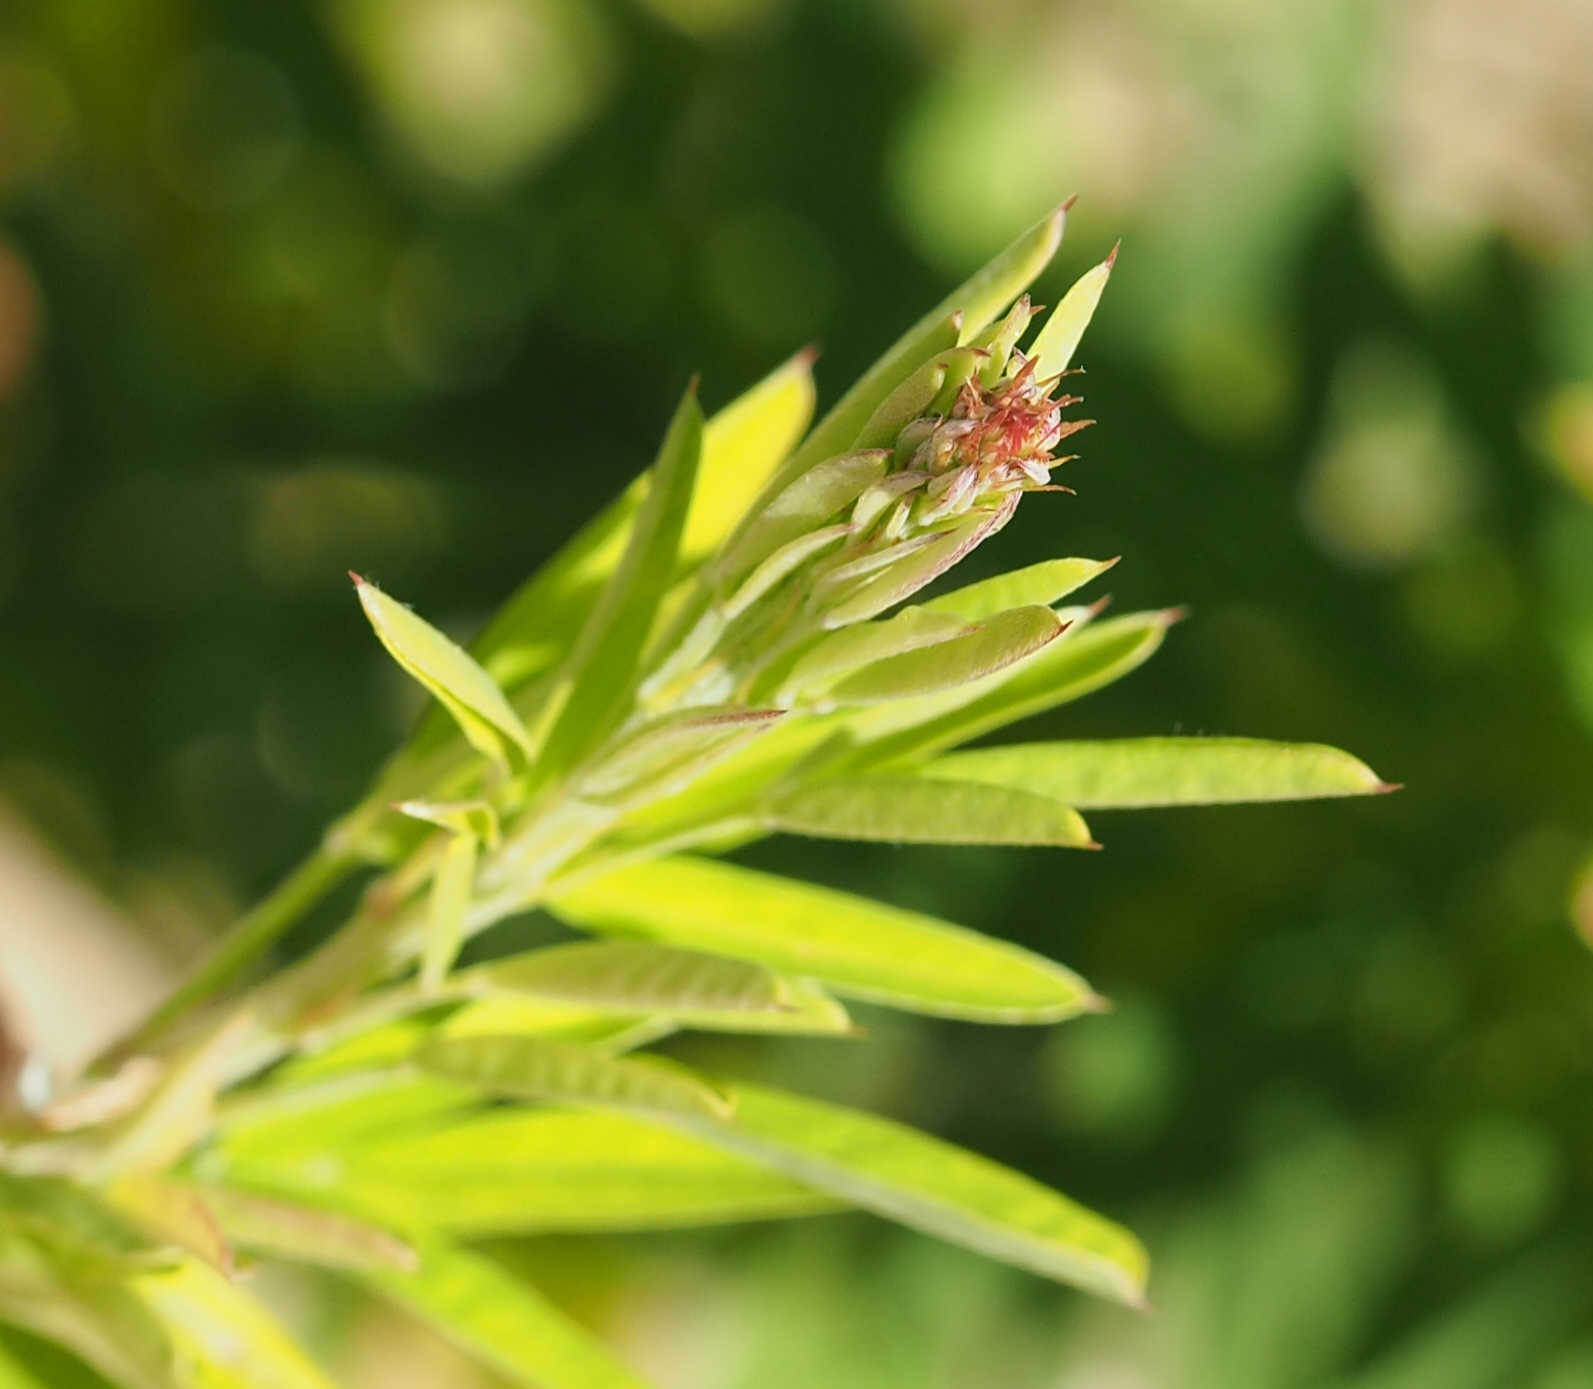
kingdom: Plantae
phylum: Tracheophyta
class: Magnoliopsida
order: Fabales
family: Fabaceae
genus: Lespedeza
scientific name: Lespedeza cuneata
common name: Chinese bush-clover
